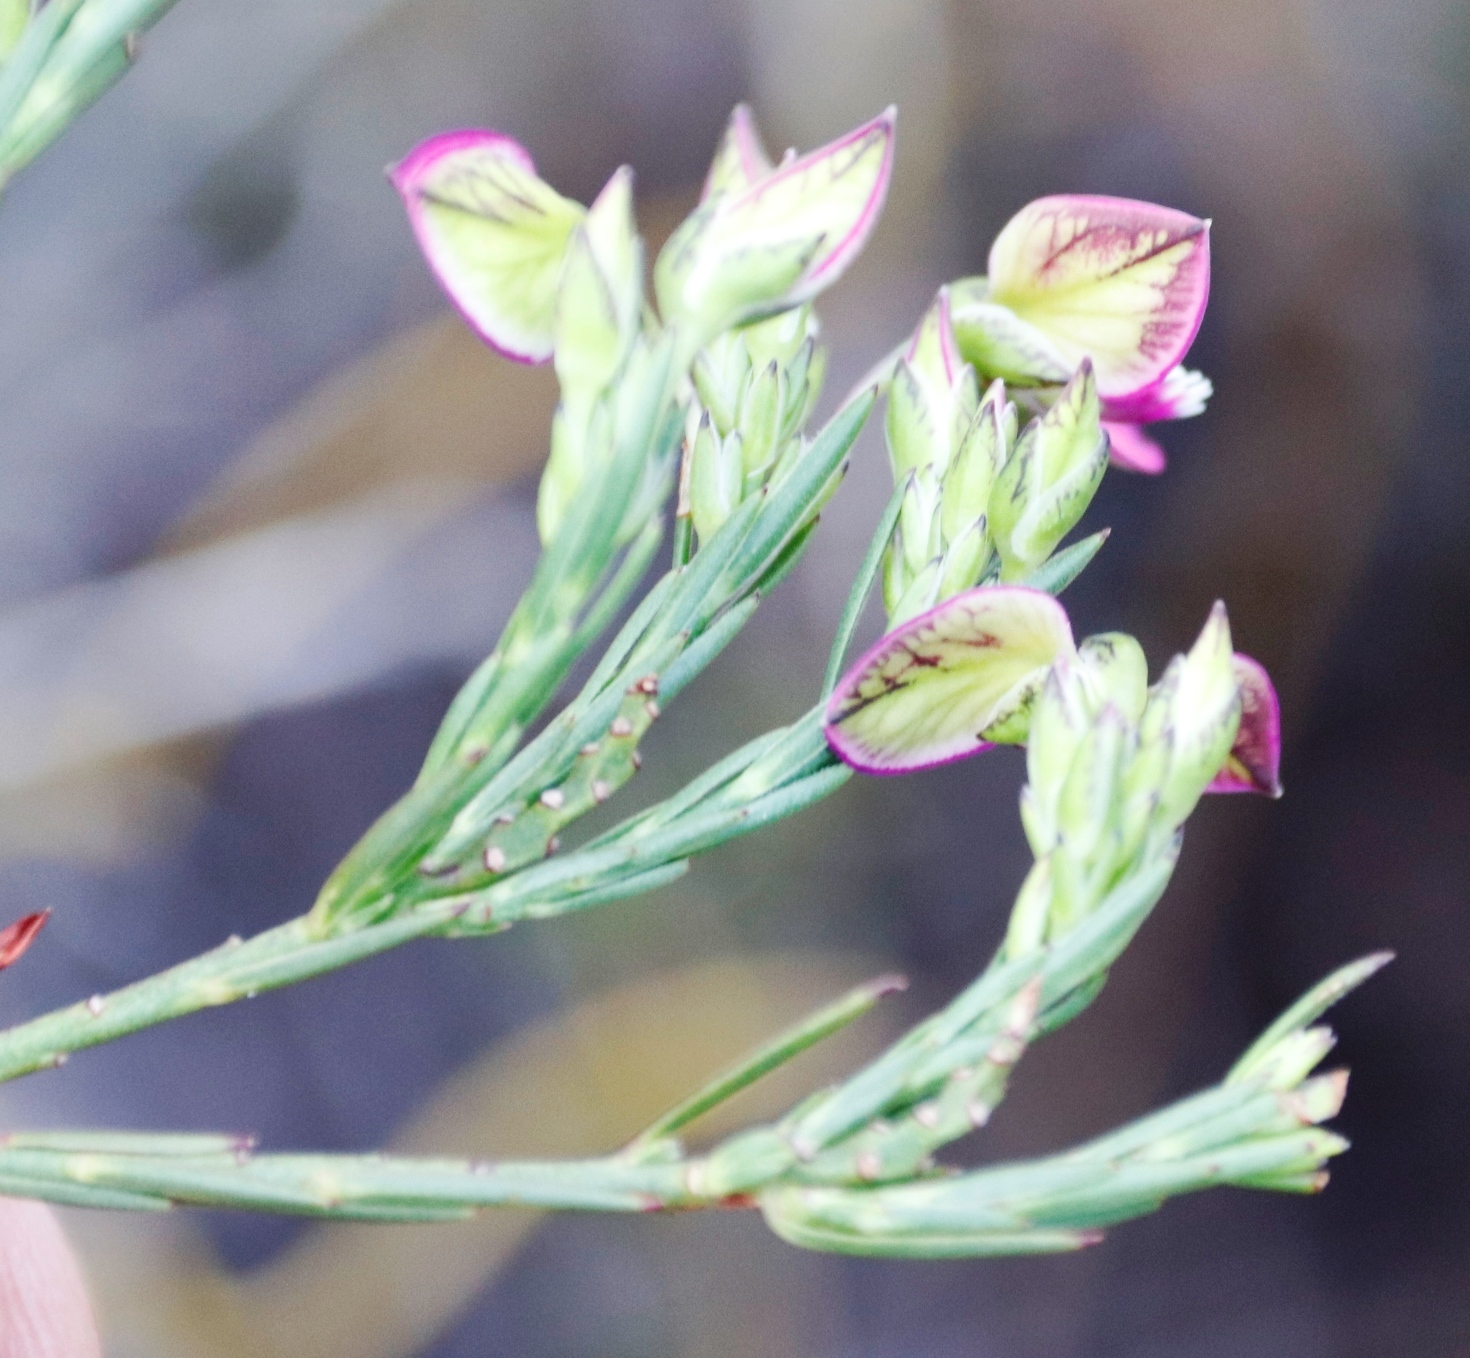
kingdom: Plantae
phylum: Tracheophyta
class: Magnoliopsida
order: Fabales
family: Polygalaceae
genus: Polygala
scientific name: Polygala recognita
